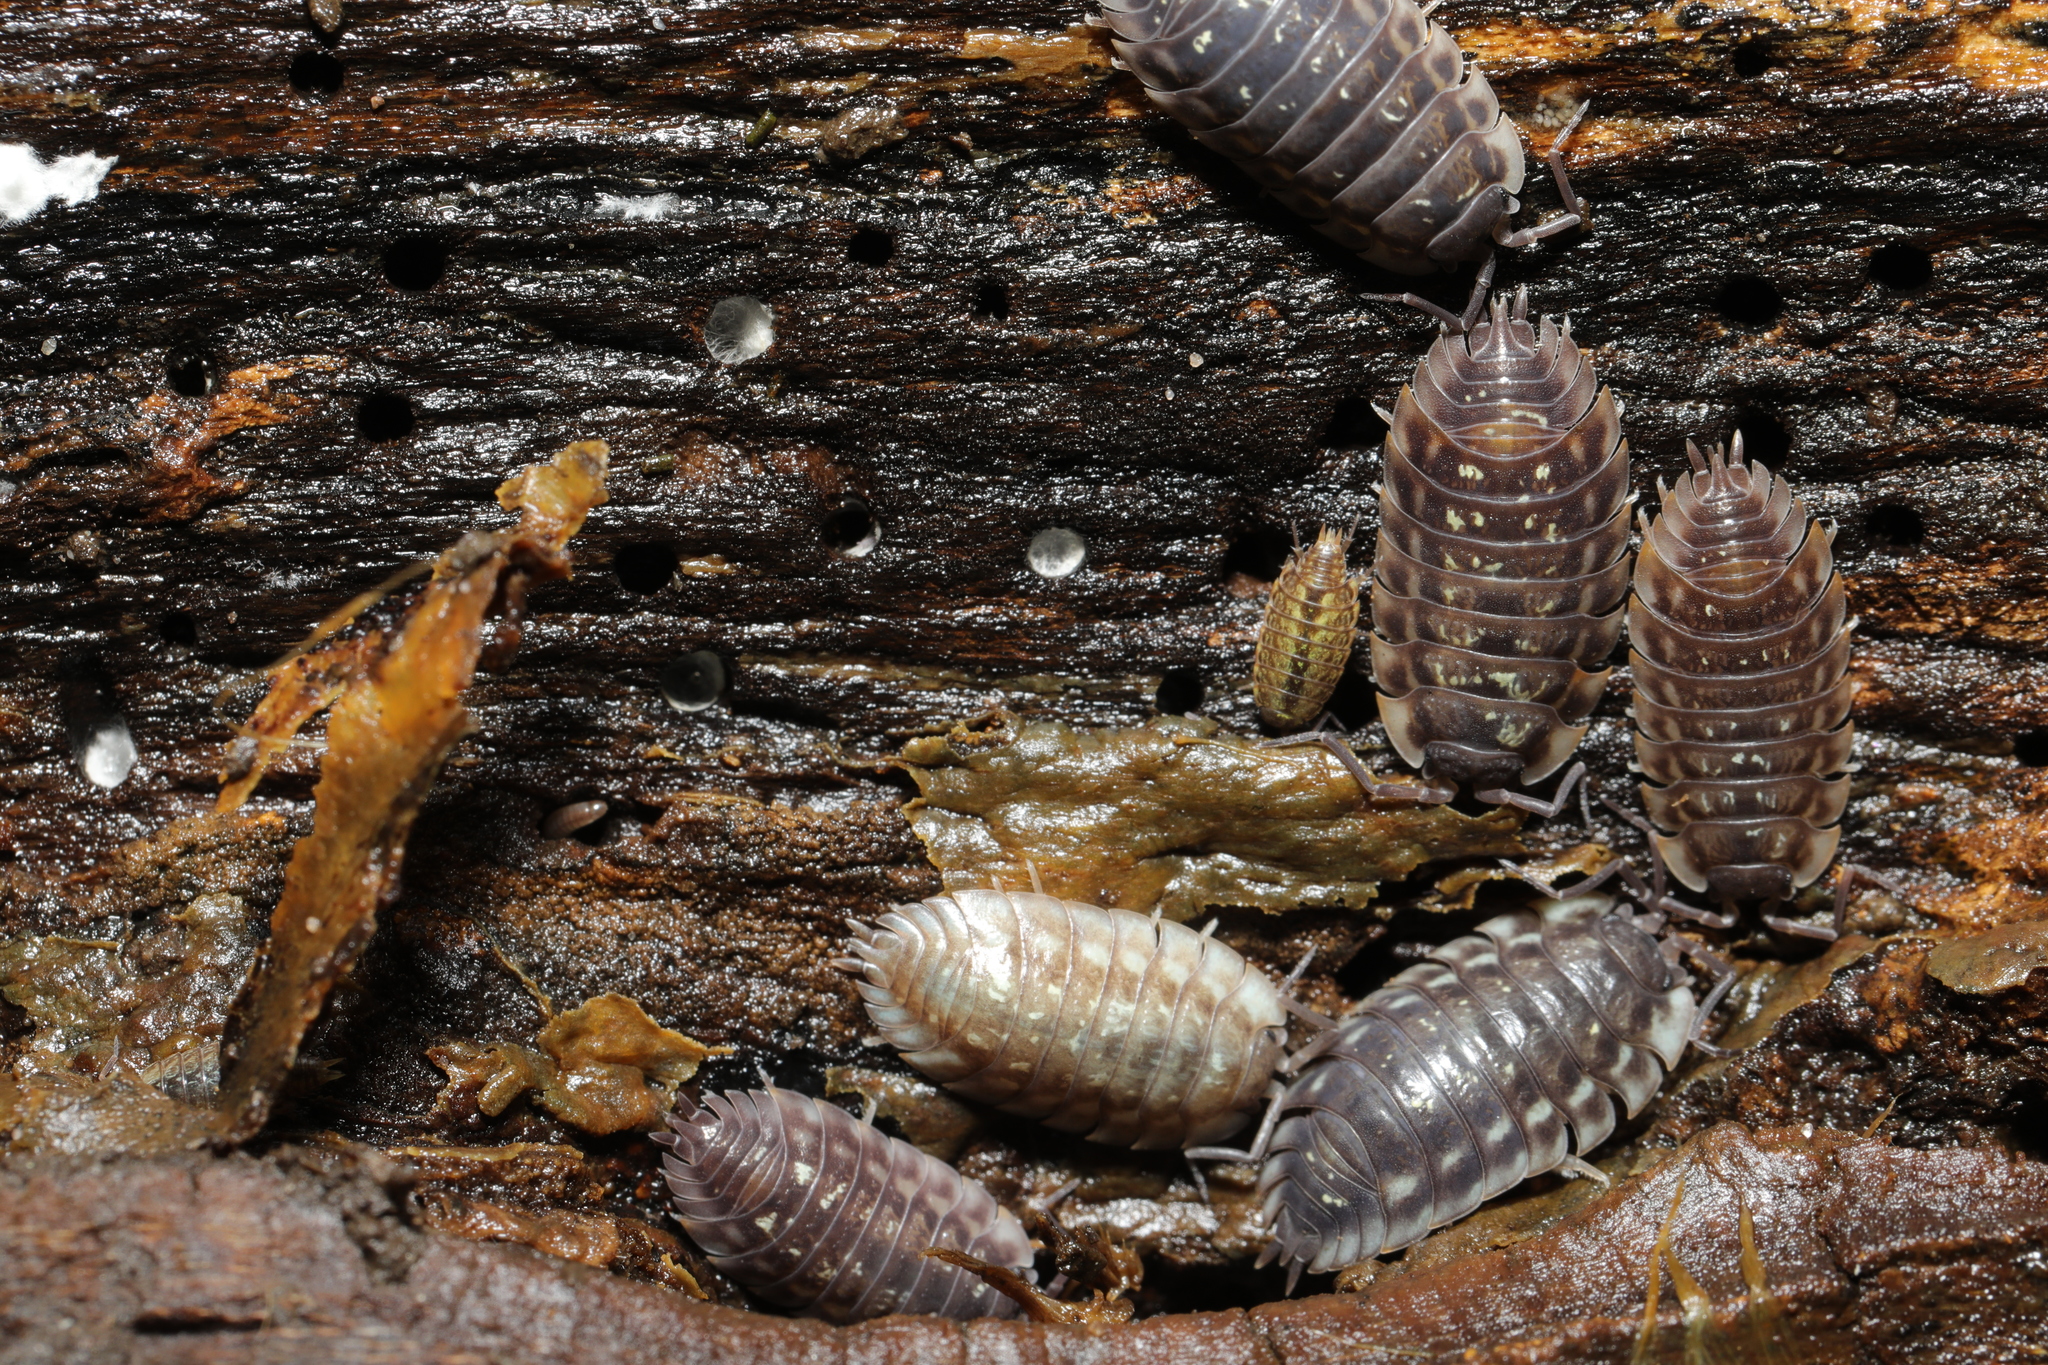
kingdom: Animalia
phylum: Arthropoda
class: Malacostraca
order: Isopoda
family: Oniscidae
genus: Oniscus
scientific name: Oniscus asellus
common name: Common shiny woodlouse
